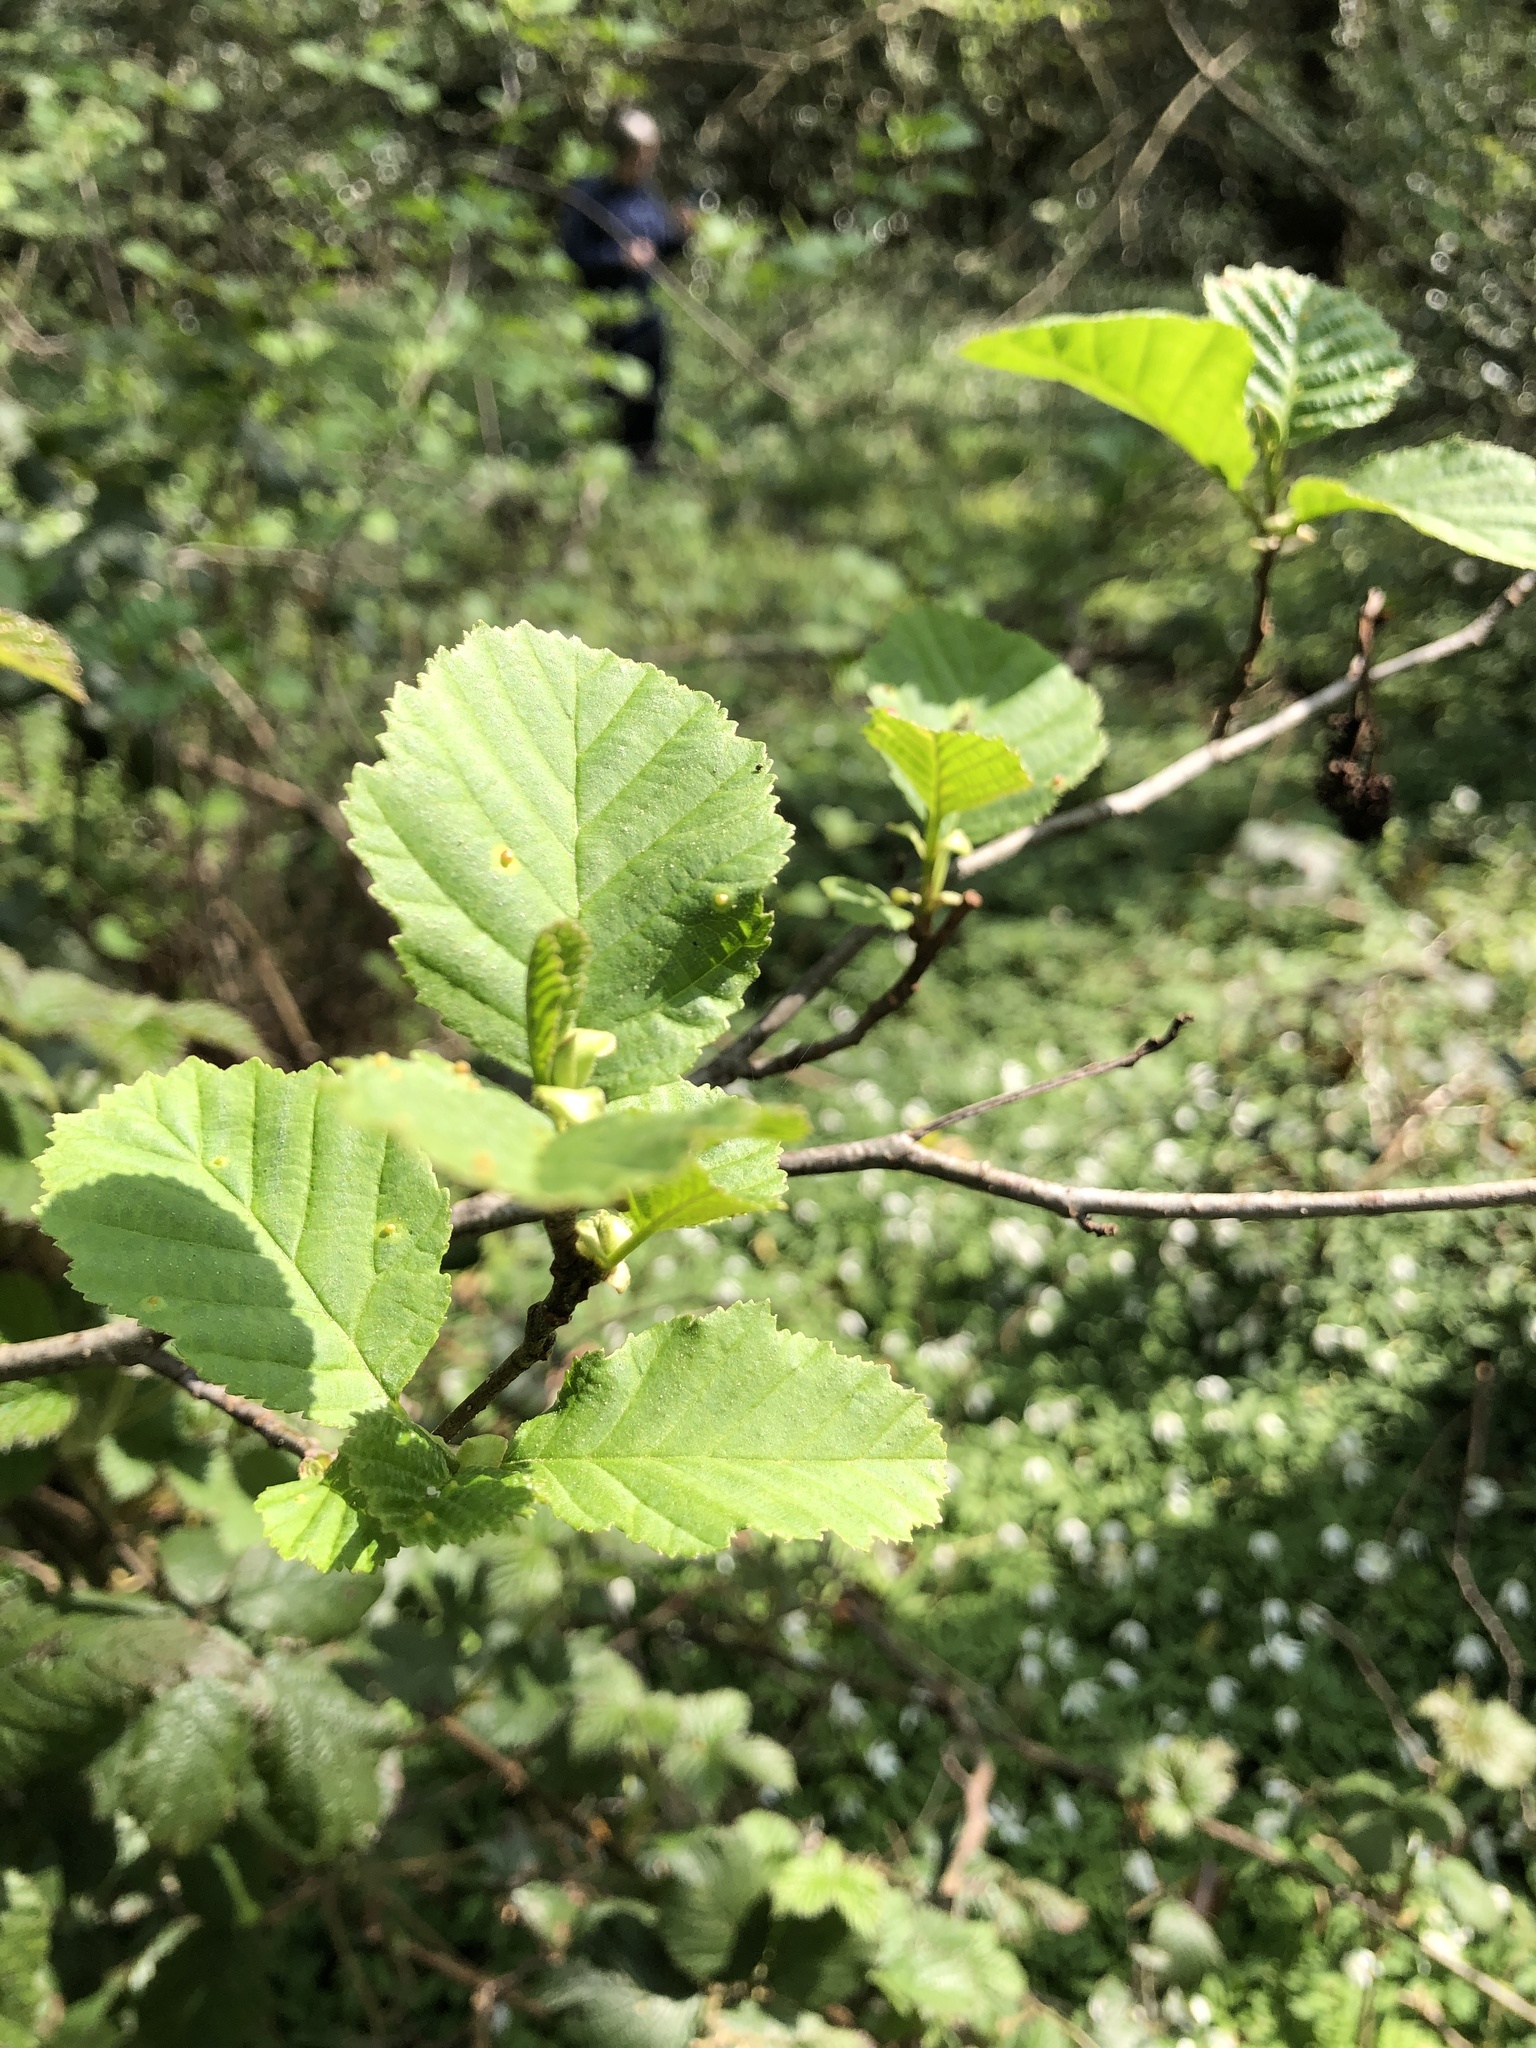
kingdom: Plantae
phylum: Tracheophyta
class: Magnoliopsida
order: Fagales
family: Betulaceae
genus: Alnus
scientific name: Alnus glutinosa
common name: Black alder
